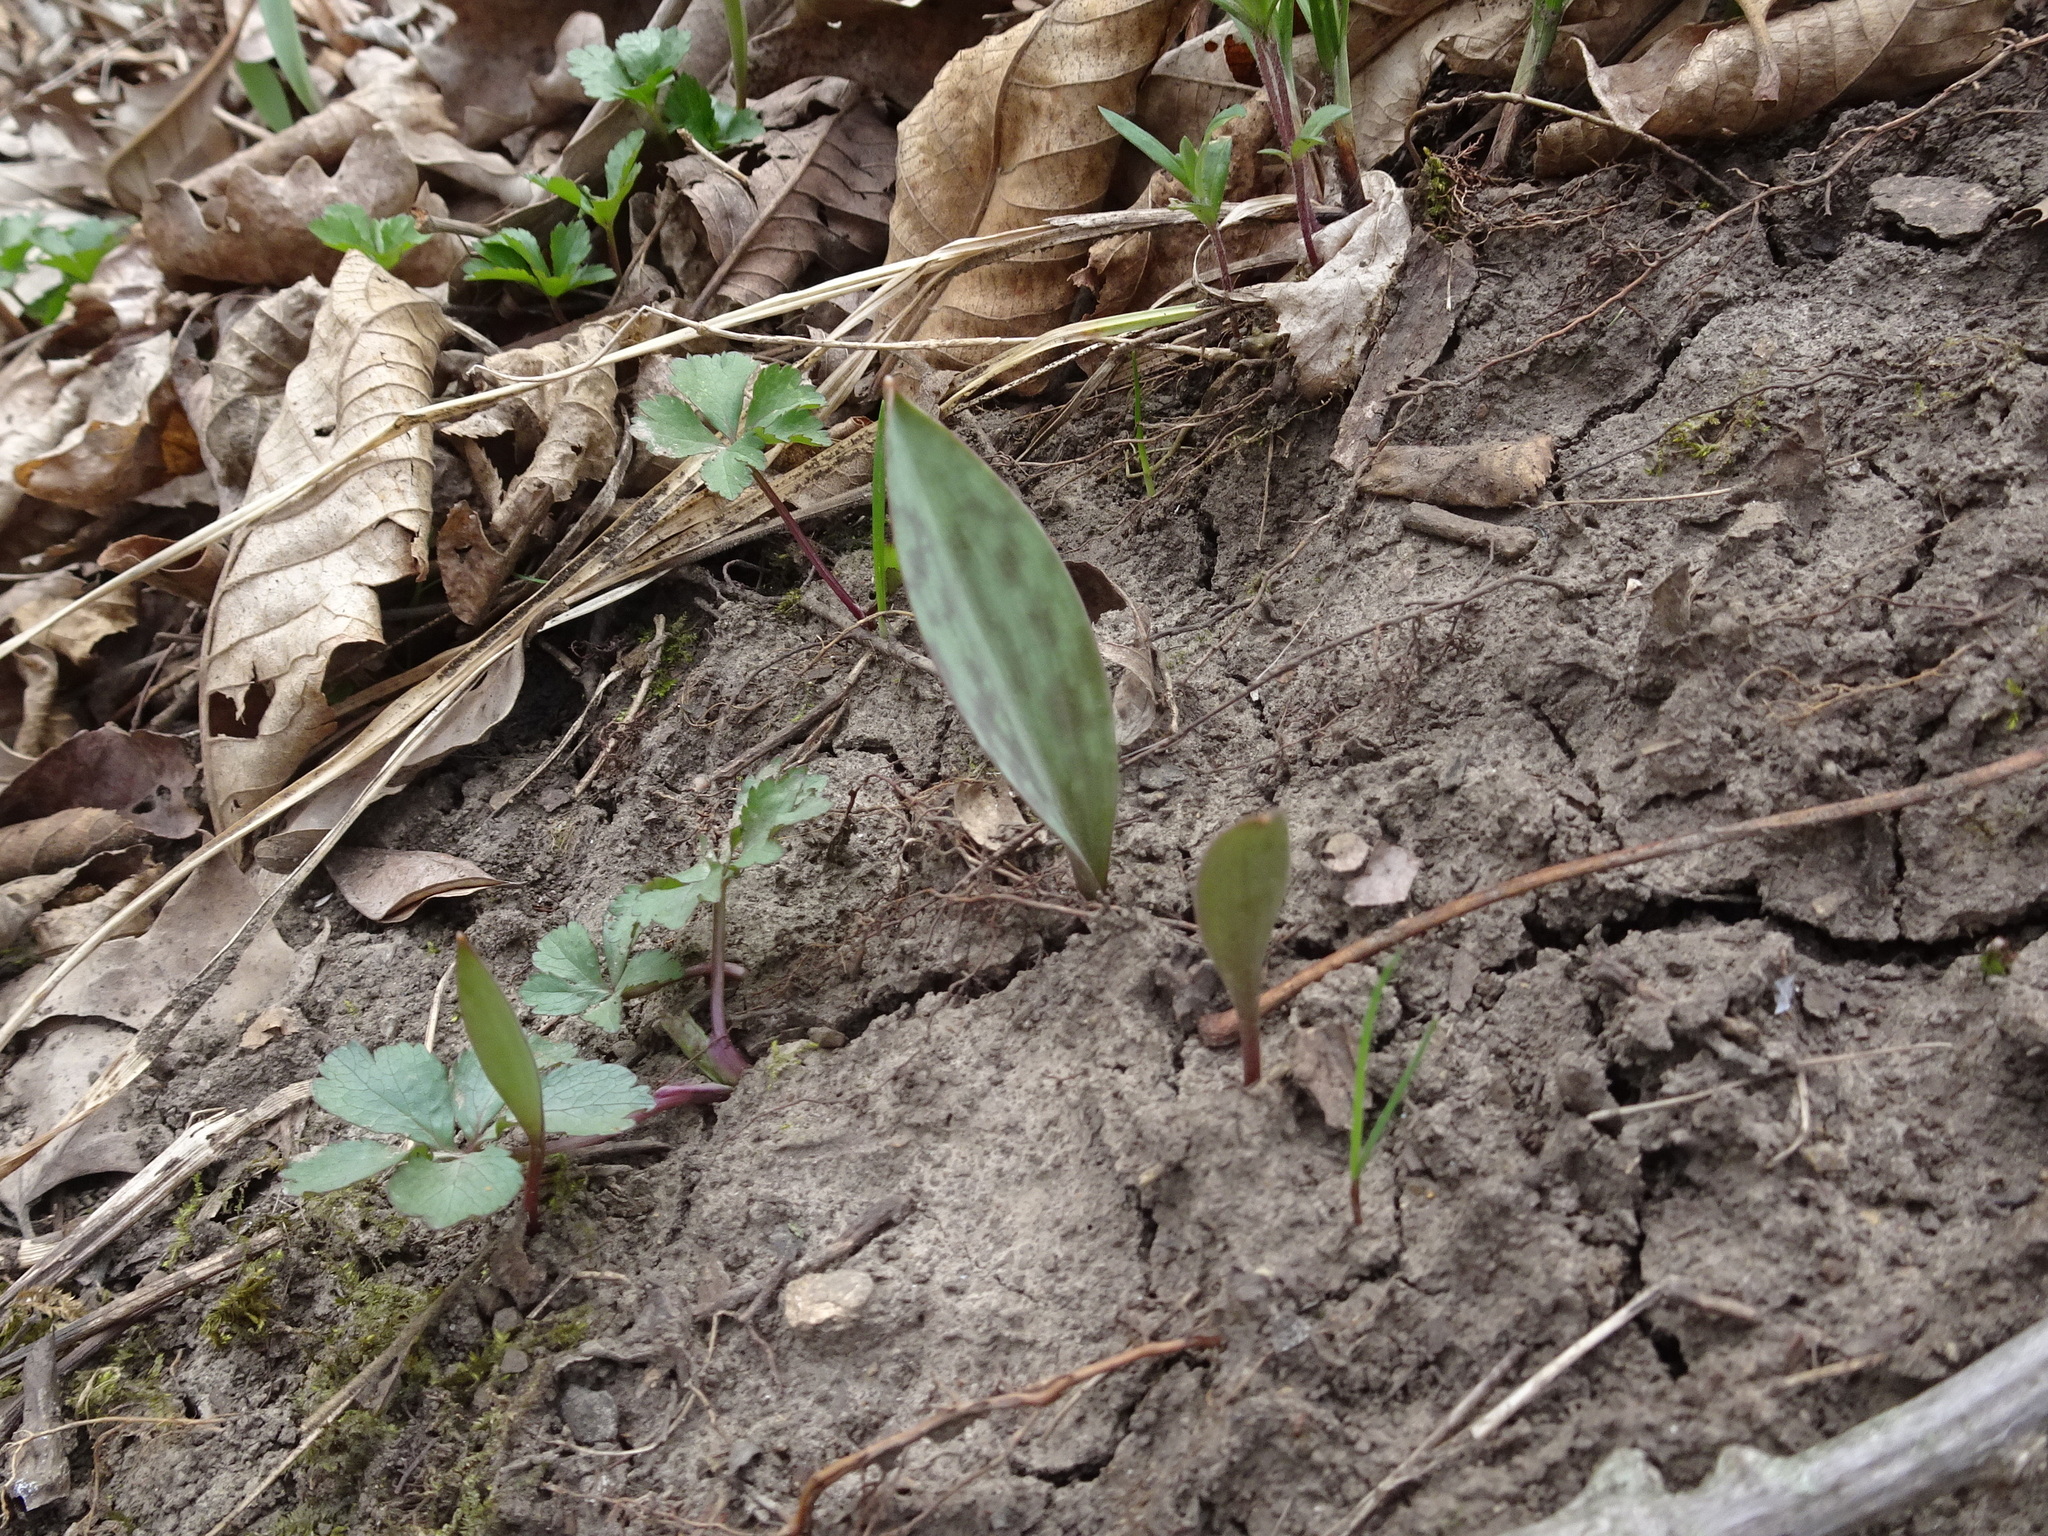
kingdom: Plantae
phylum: Tracheophyta
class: Liliopsida
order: Liliales
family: Liliaceae
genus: Erythronium
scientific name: Erythronium albidum
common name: White trout-lily
